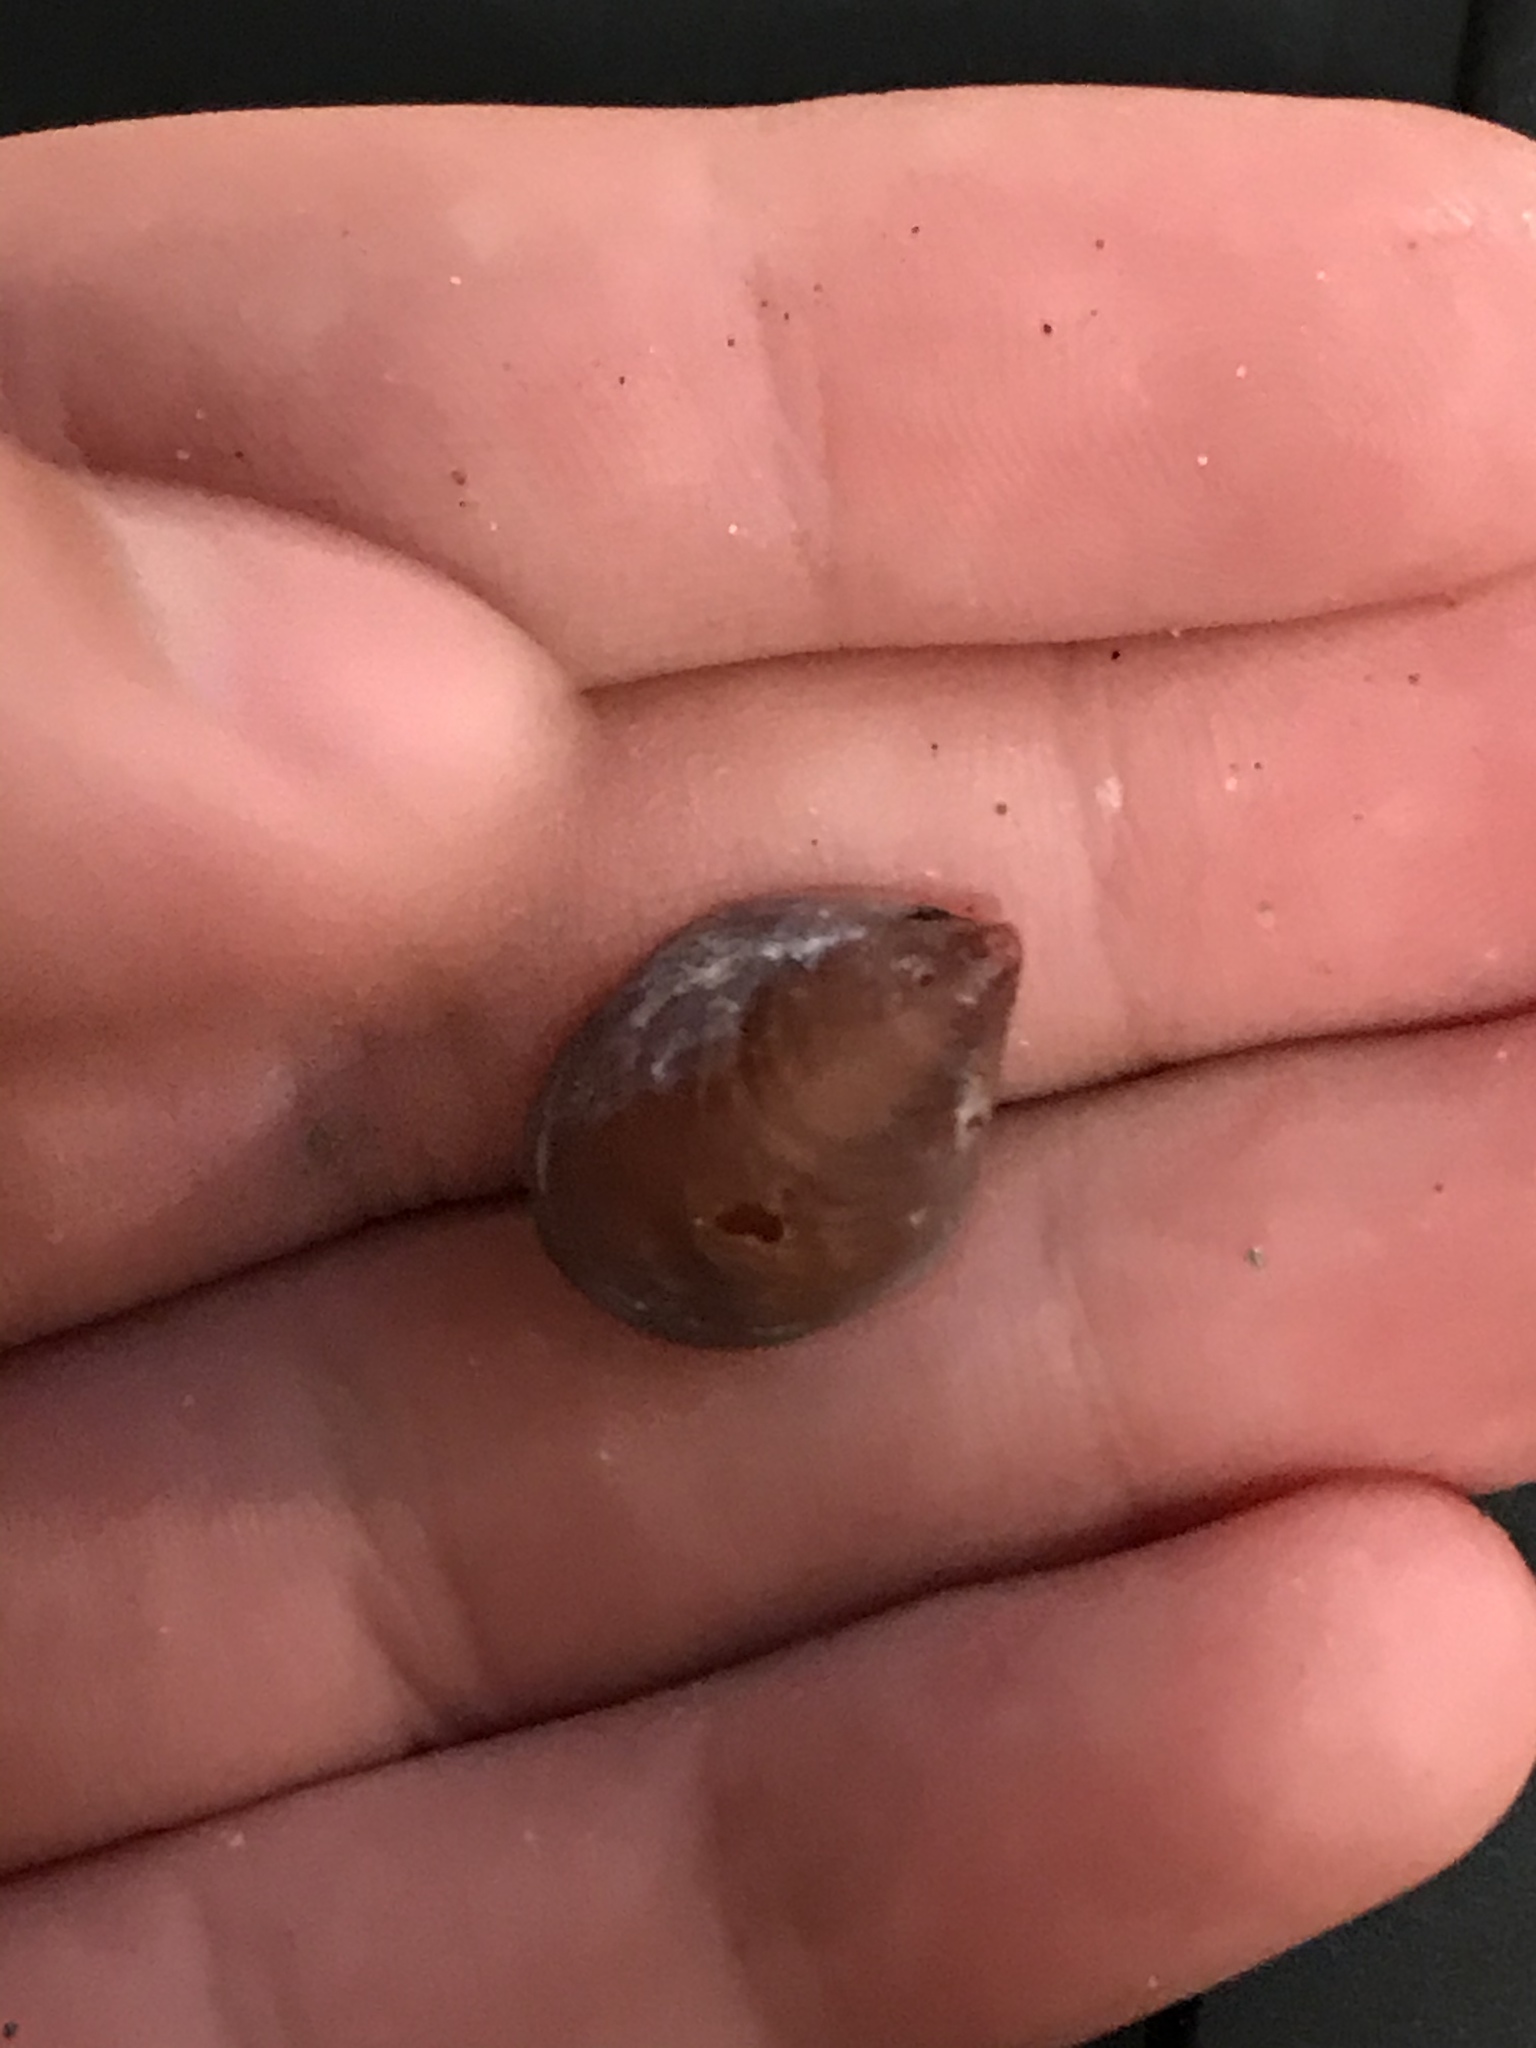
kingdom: Animalia
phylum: Mollusca
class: Gastropoda
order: Littorinimorpha
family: Calyptraeidae
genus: Crepidula
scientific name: Crepidula adunca
